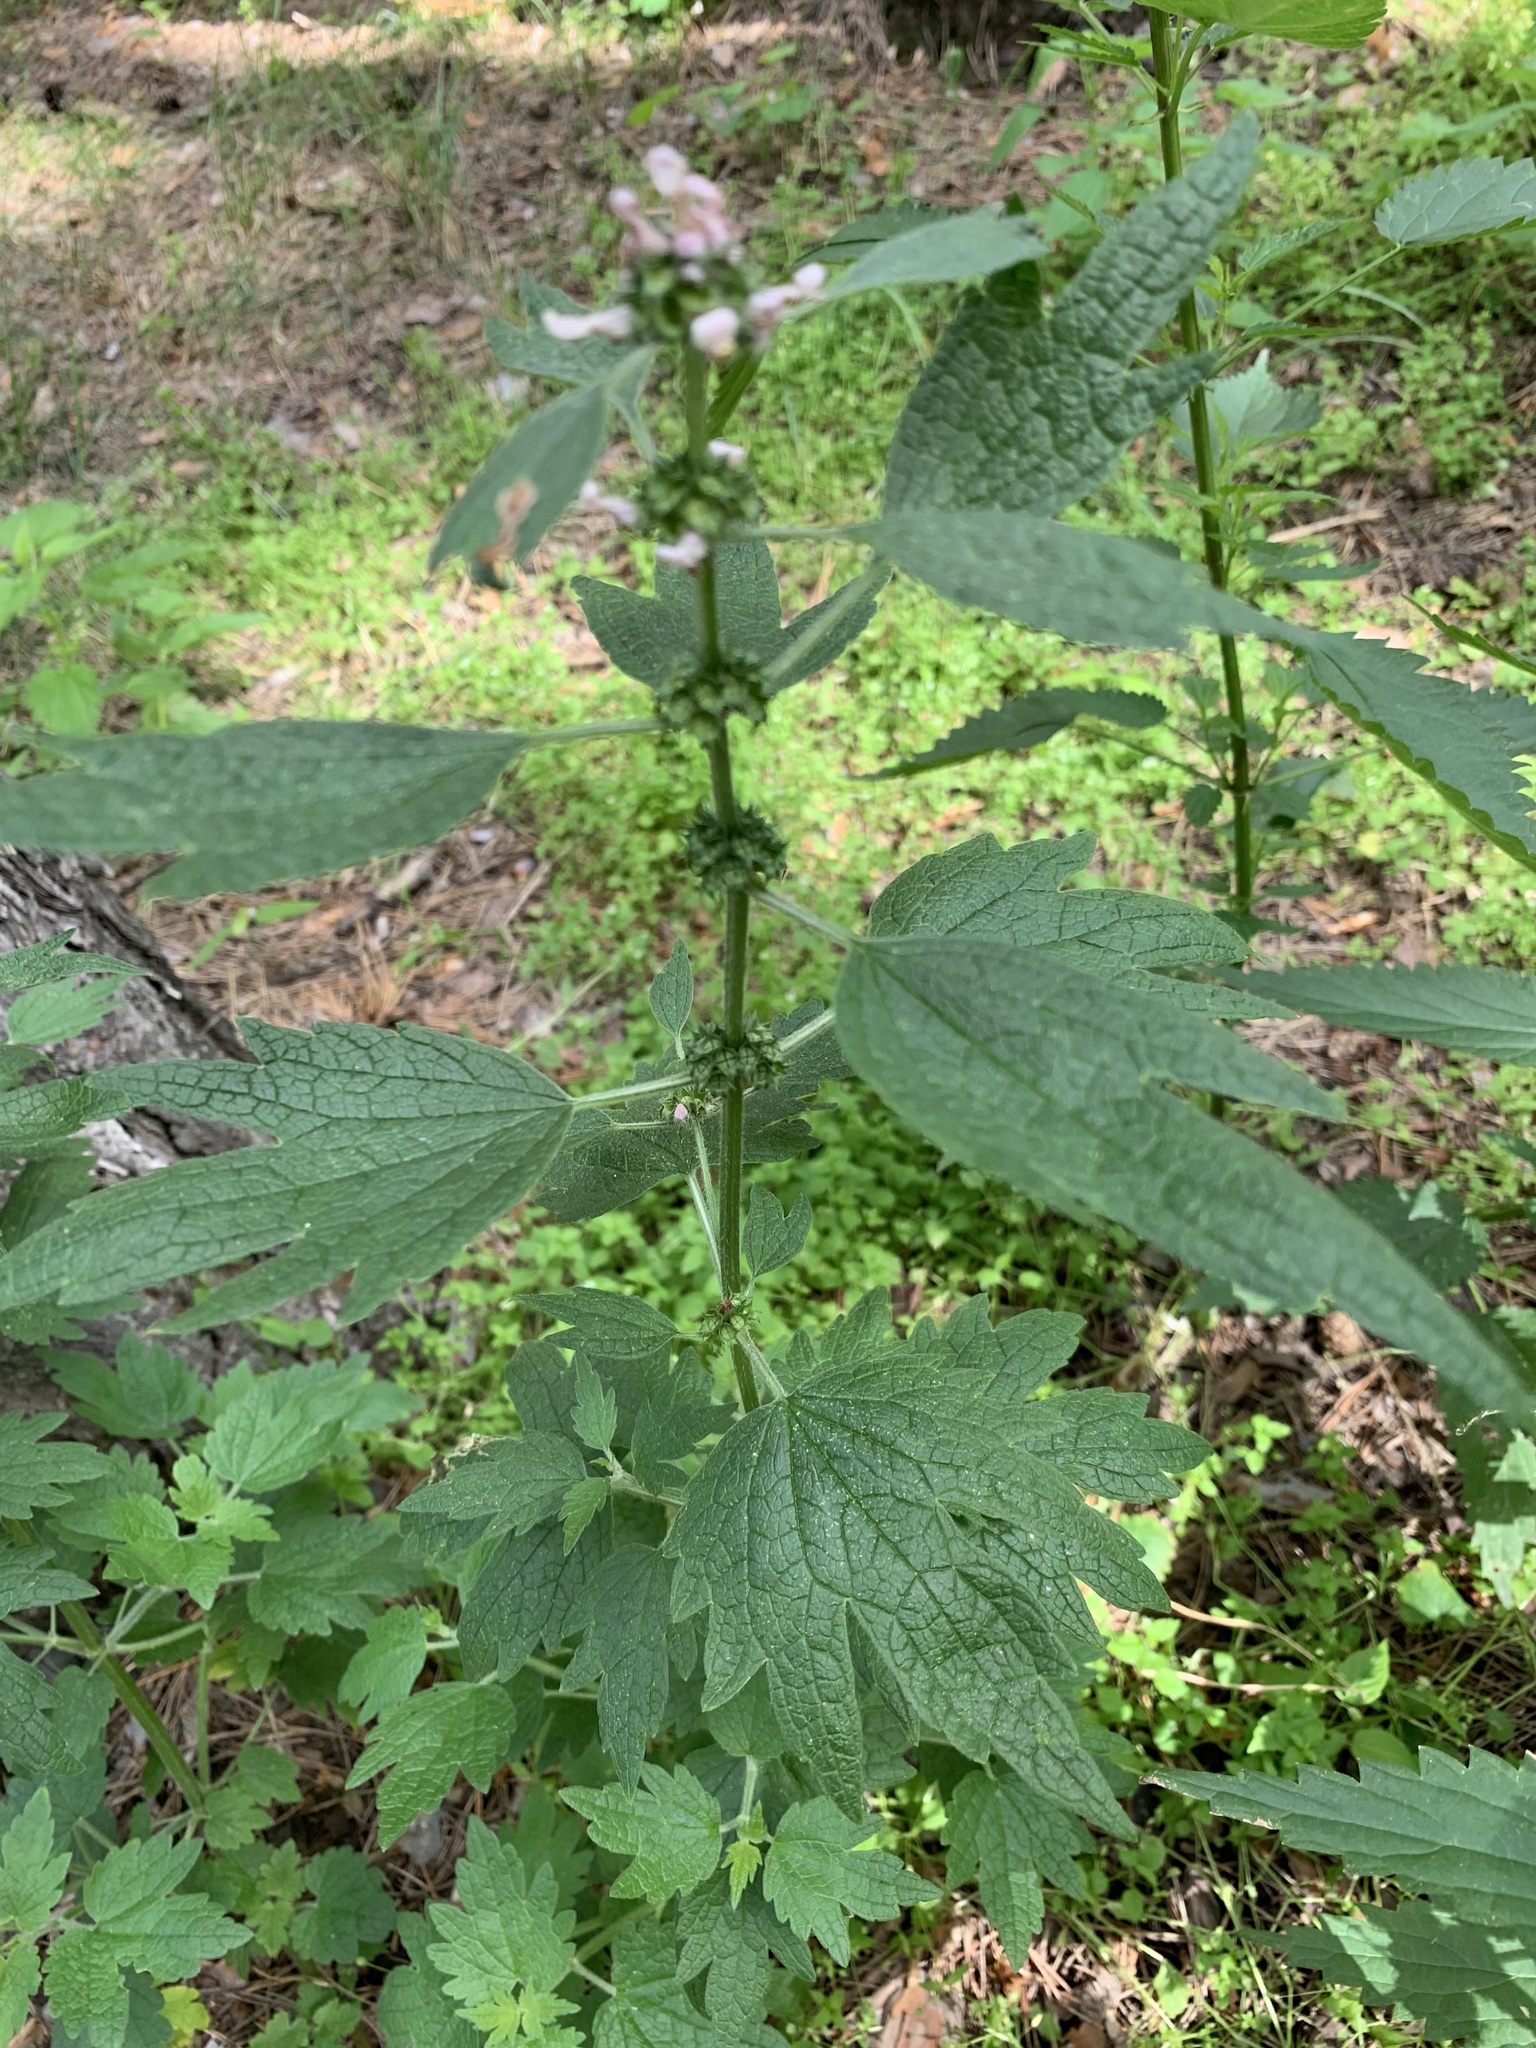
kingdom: Plantae
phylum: Tracheophyta
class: Magnoliopsida
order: Lamiales
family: Lamiaceae
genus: Leonurus
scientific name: Leonurus quinquelobatus
